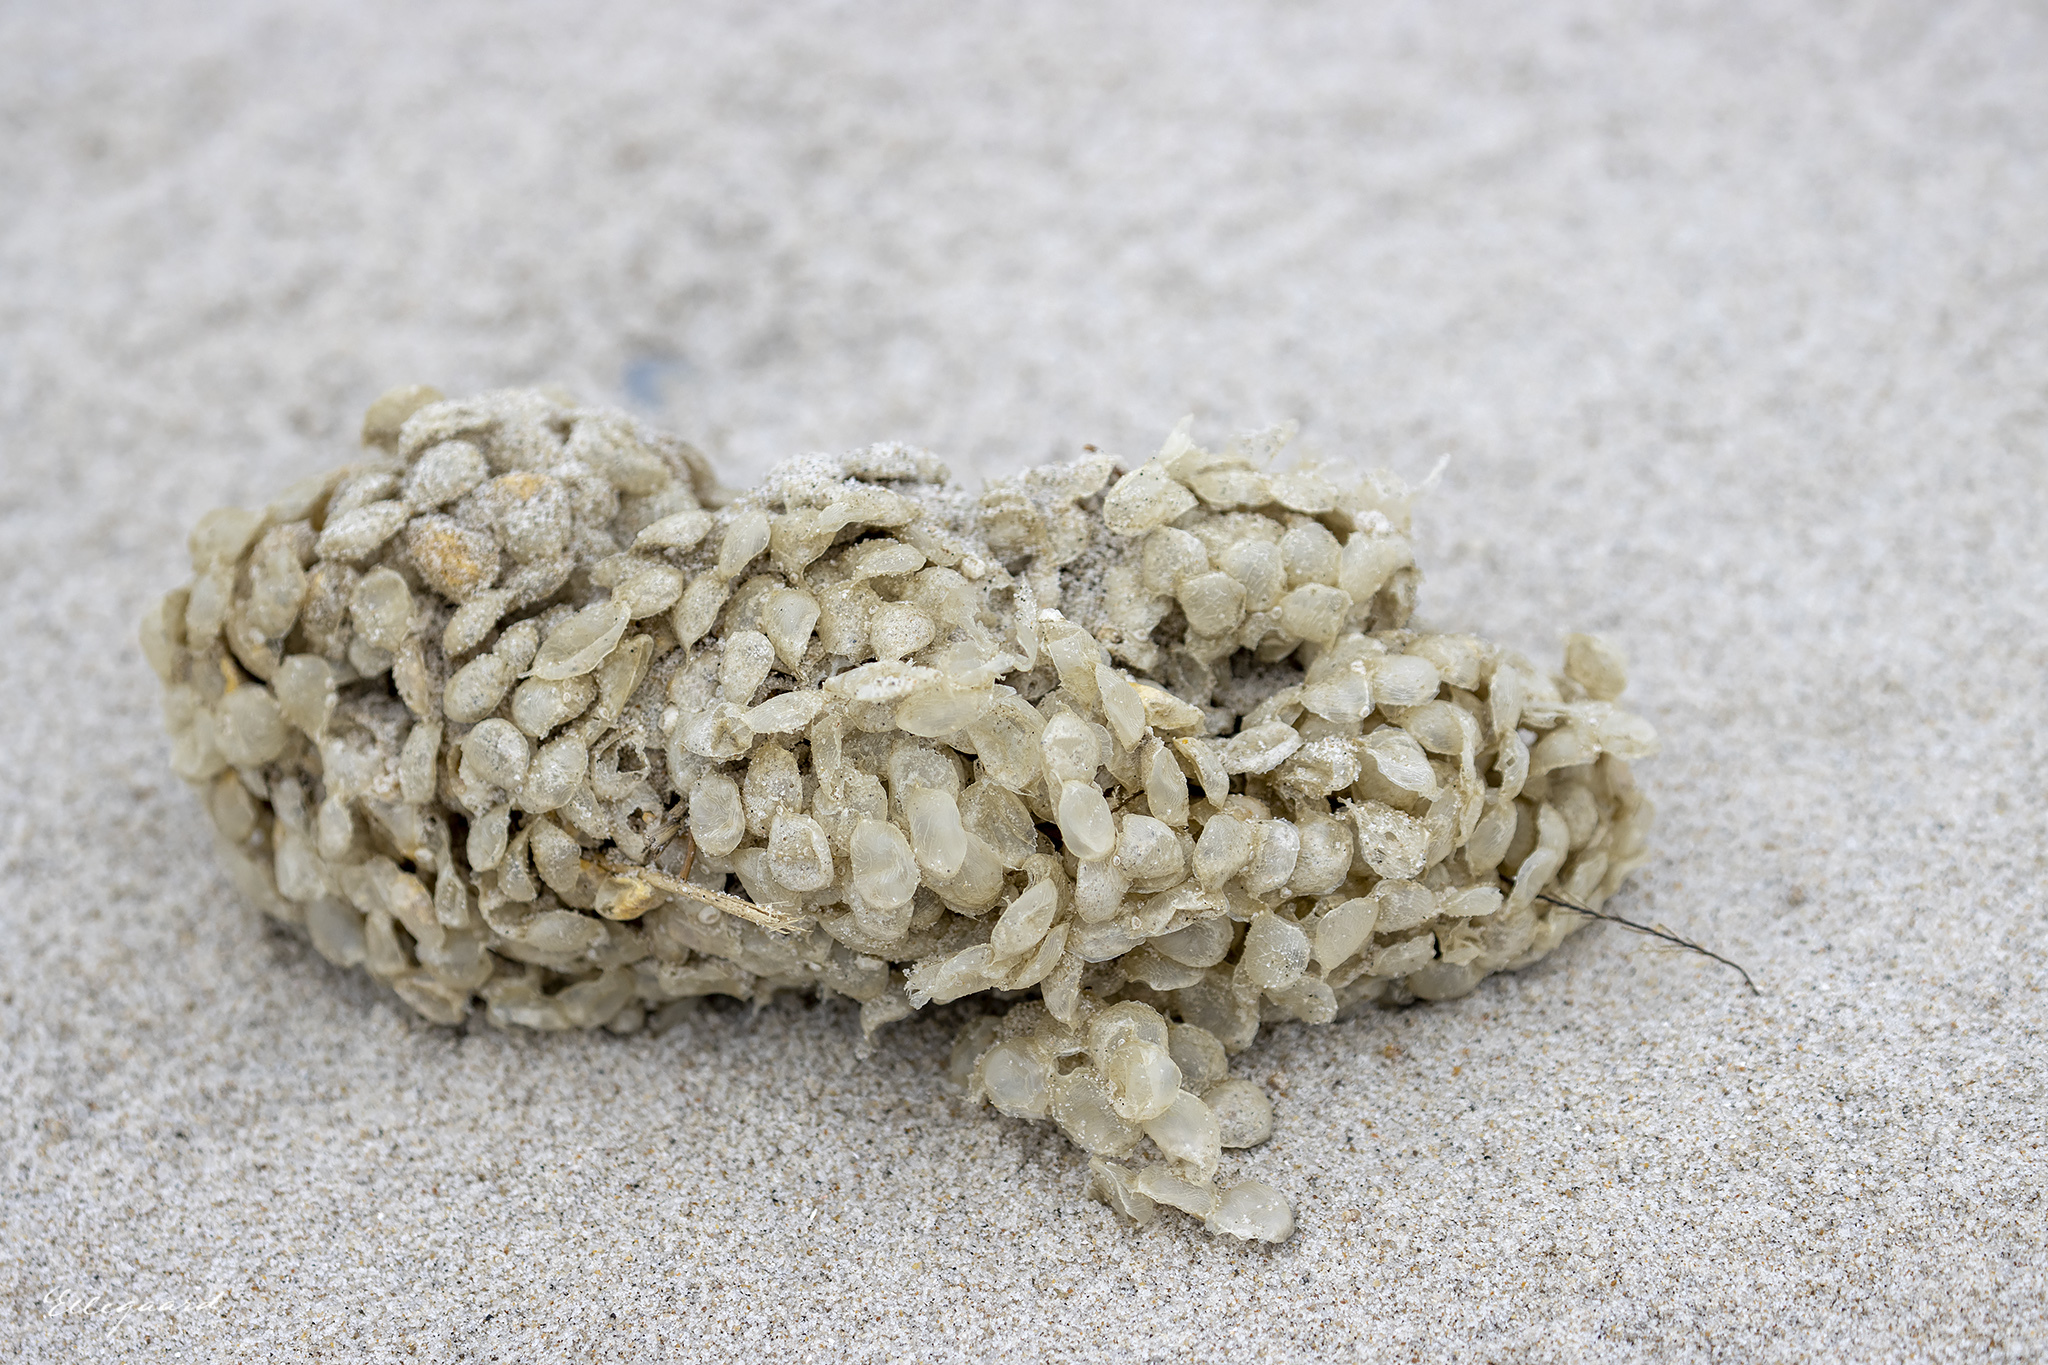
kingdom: Animalia
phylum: Mollusca
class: Gastropoda
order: Neogastropoda
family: Buccinidae
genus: Buccinum
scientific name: Buccinum undatum
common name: Common whelk
